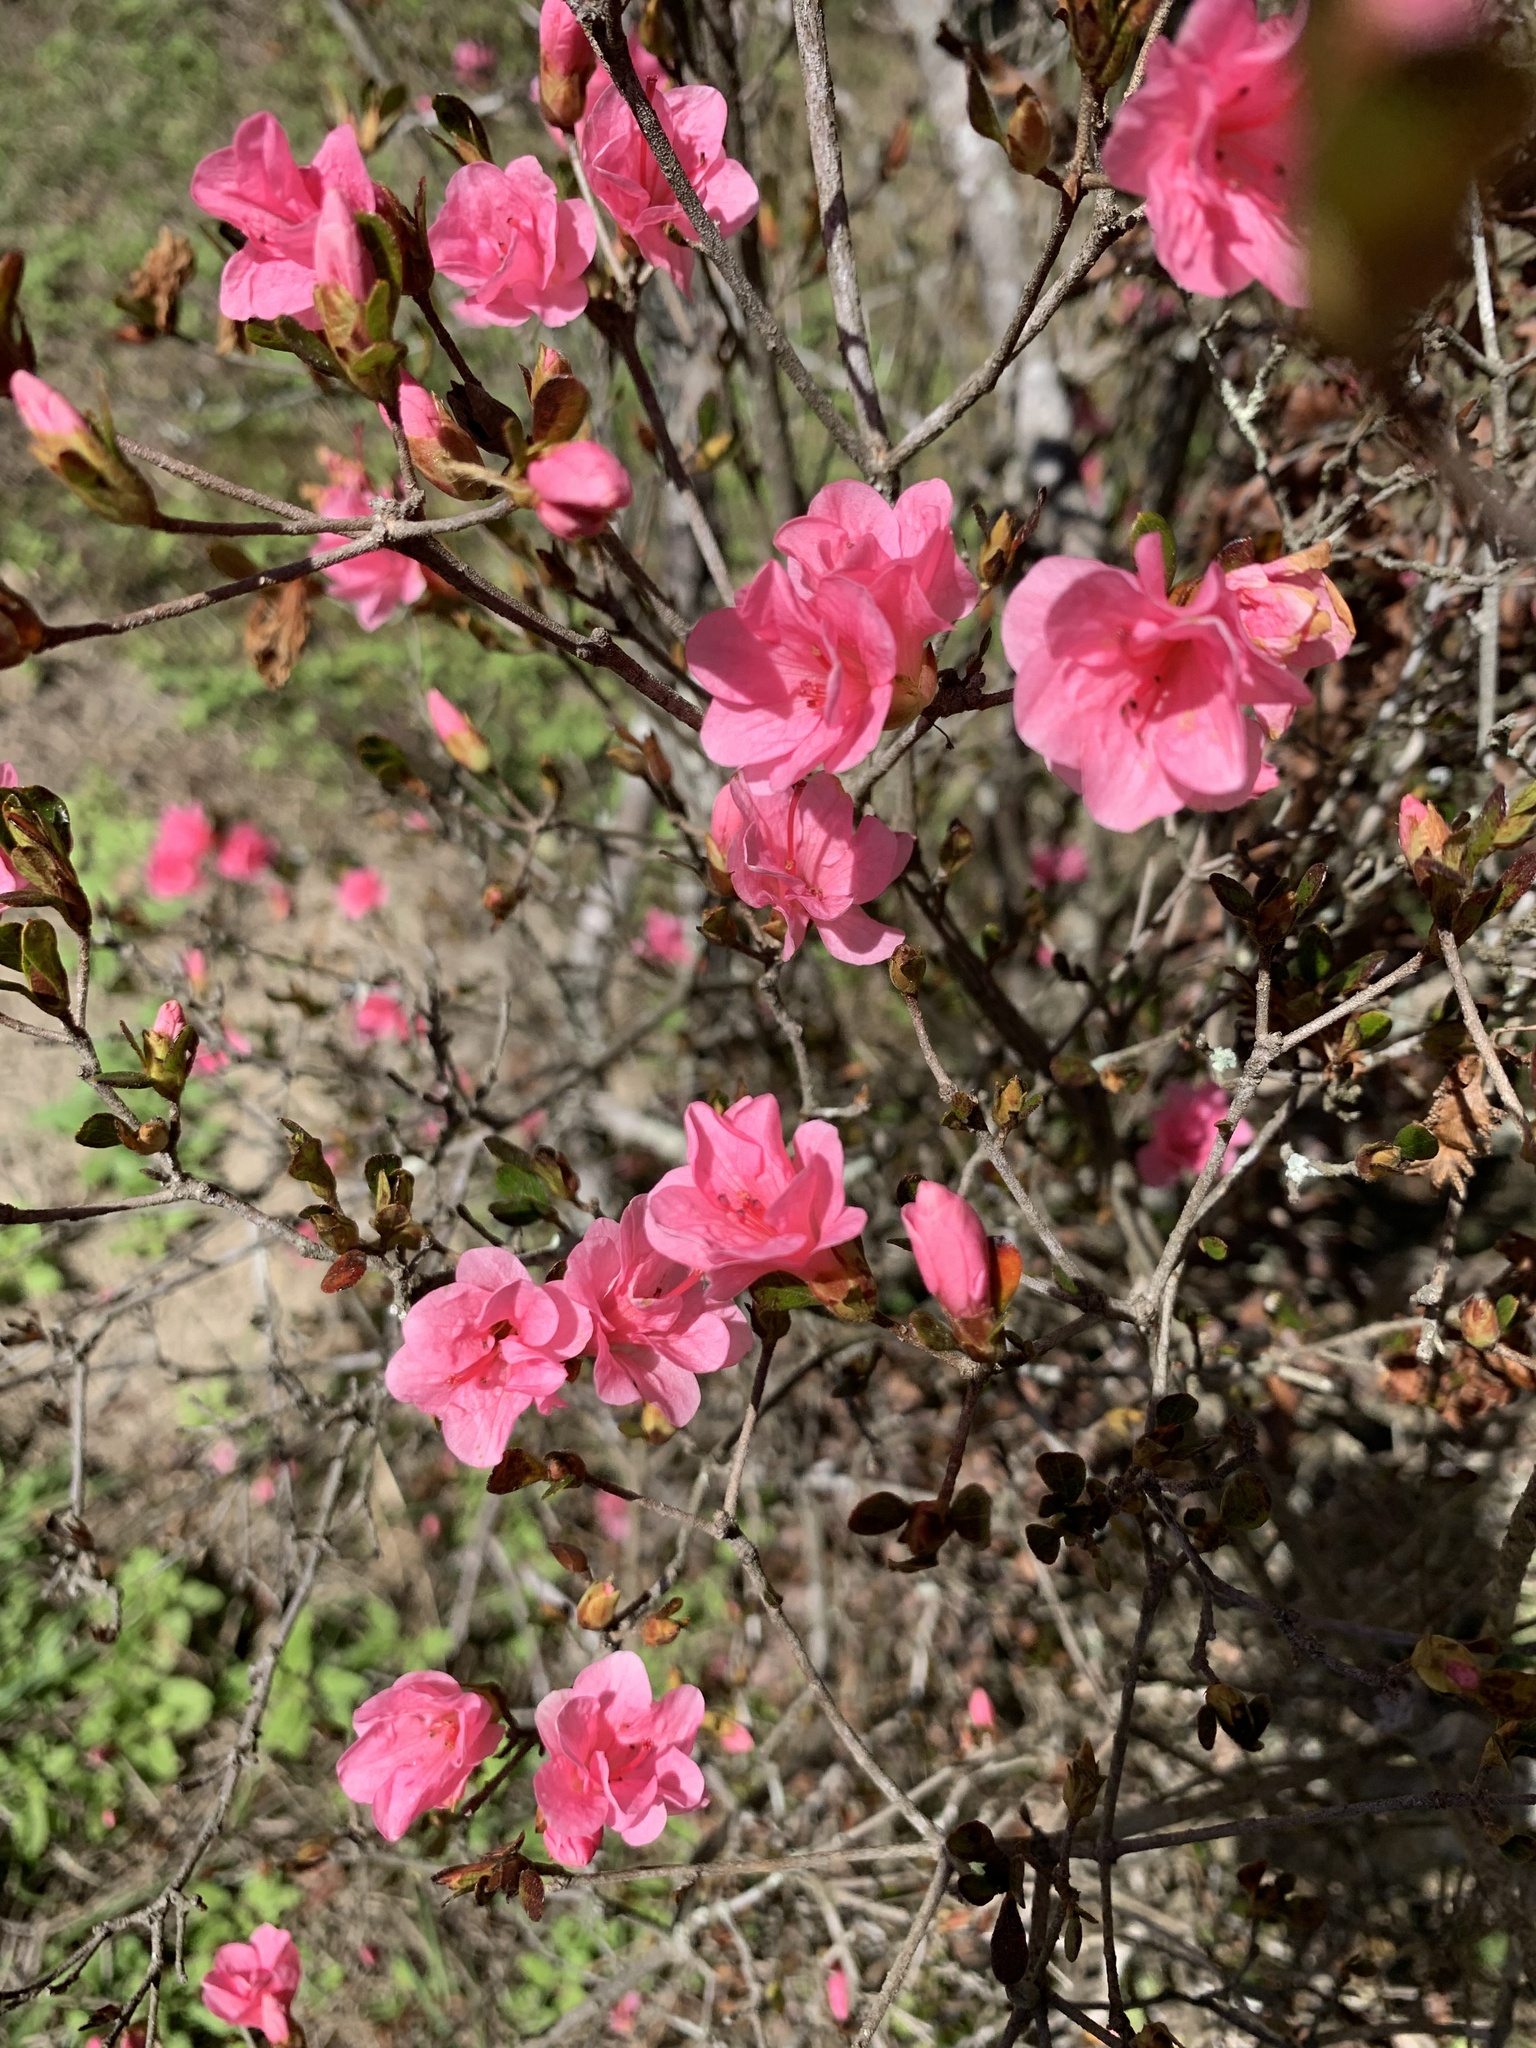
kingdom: Plantae
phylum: Tracheophyta
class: Magnoliopsida
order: Ericales
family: Ericaceae
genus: Rhododendron
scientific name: Rhododendron indicum
